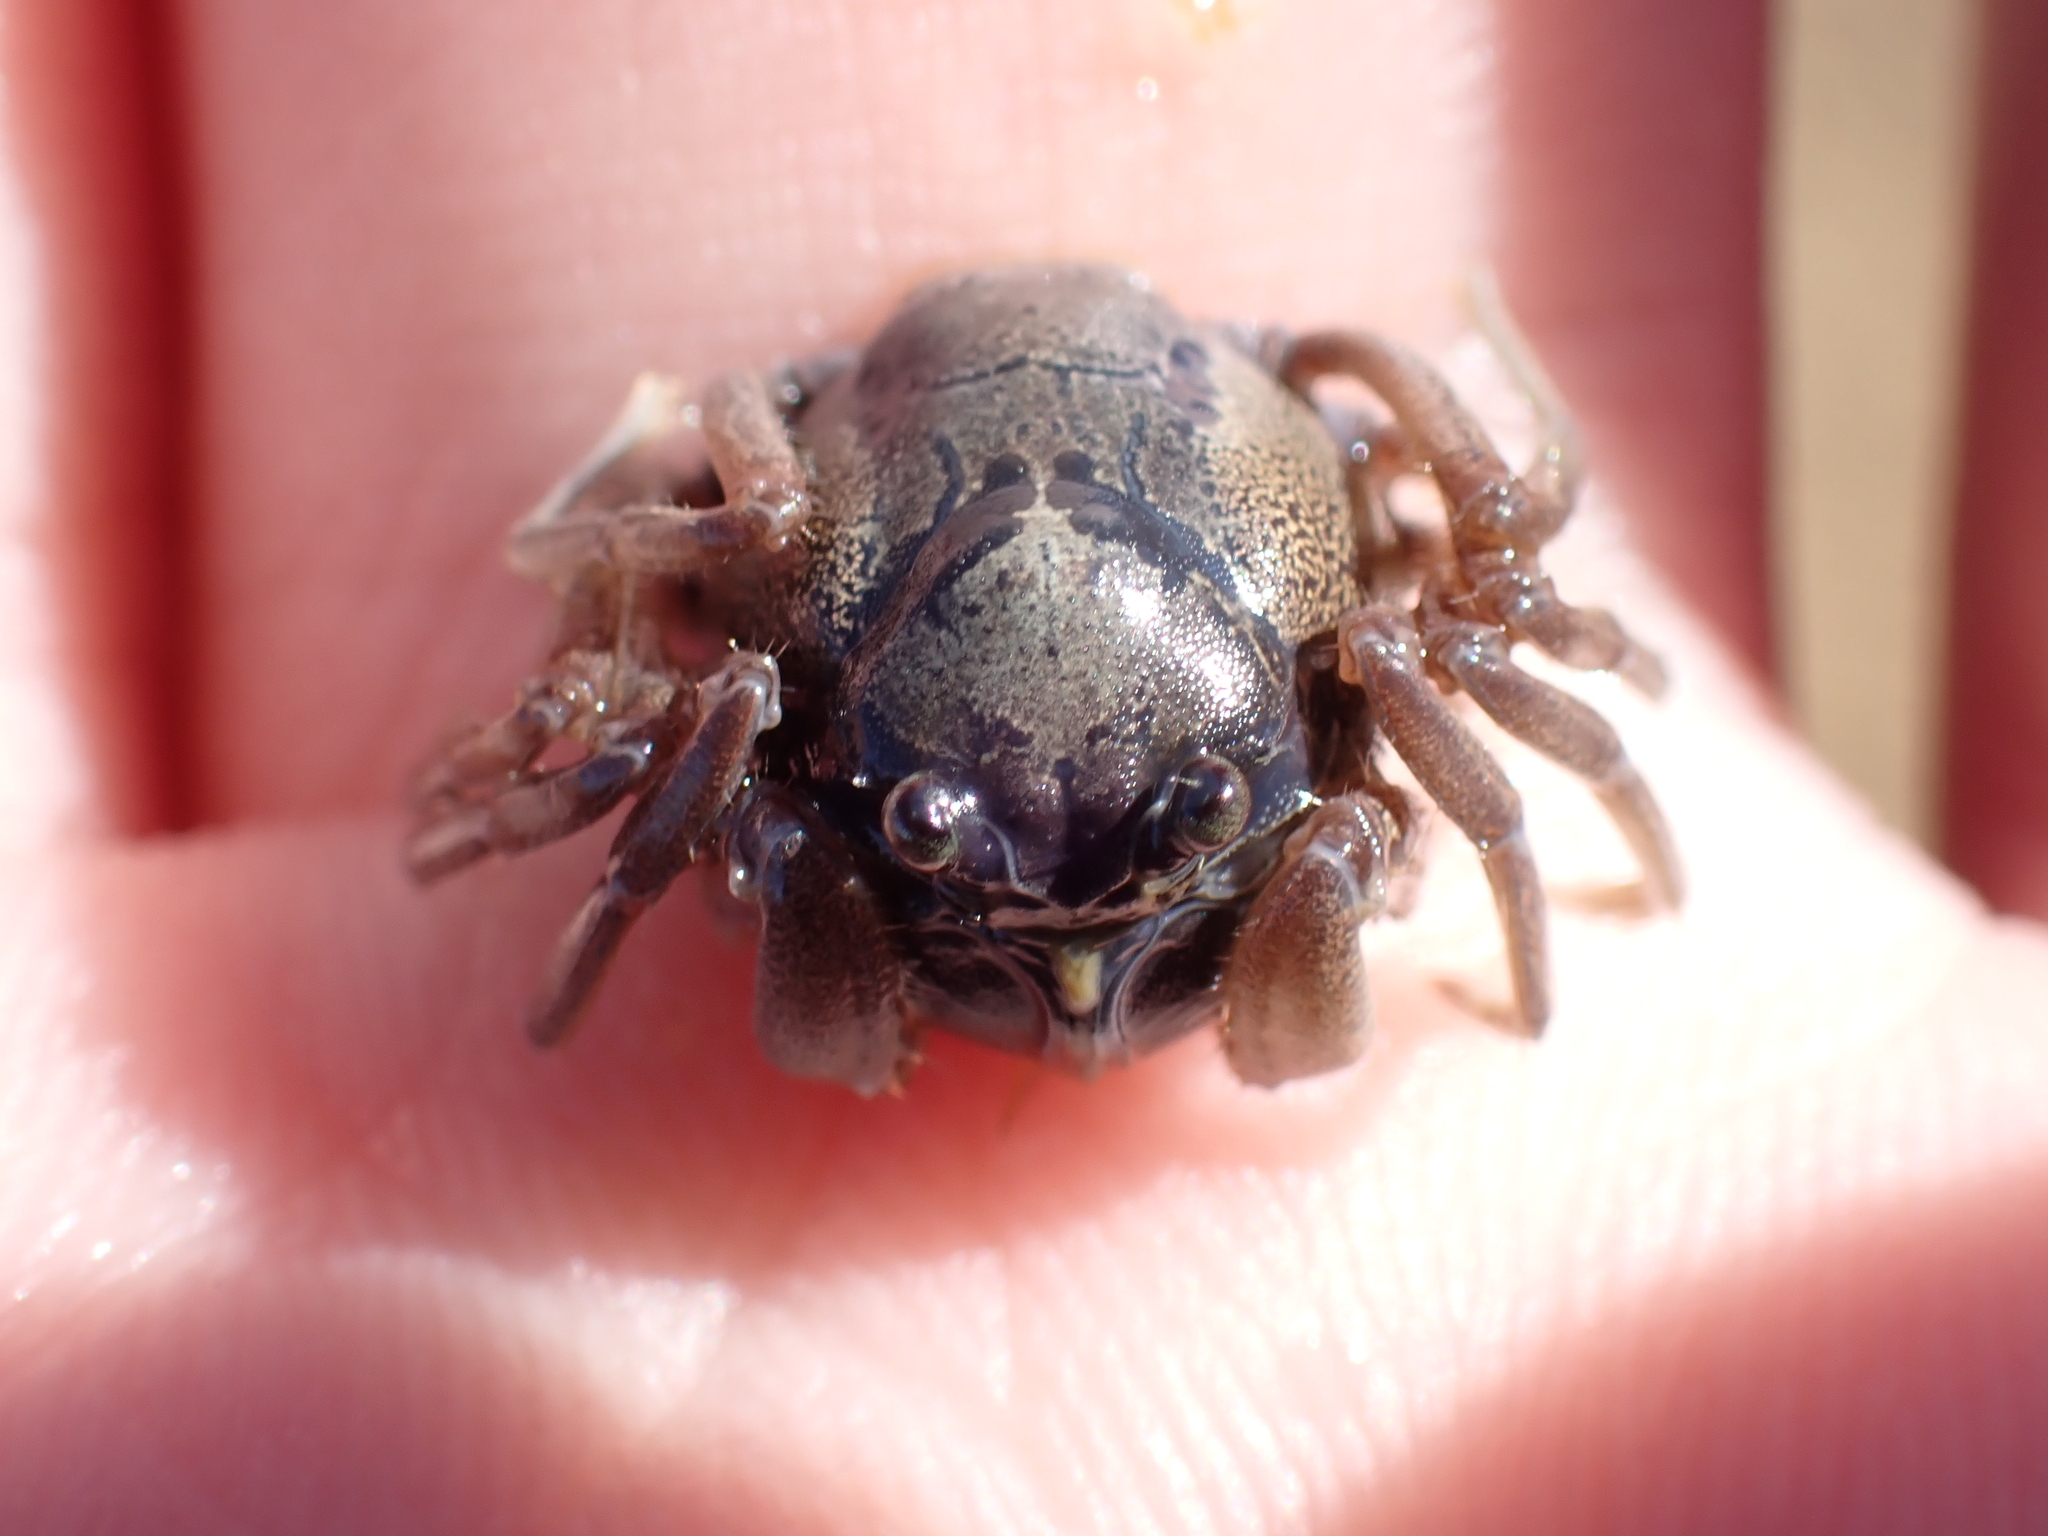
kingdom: Animalia
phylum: Arthropoda
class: Malacostraca
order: Decapoda
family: Mictyridae
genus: Mictyris
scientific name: Mictyris longicarpus
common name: Light-blue soldier crab
